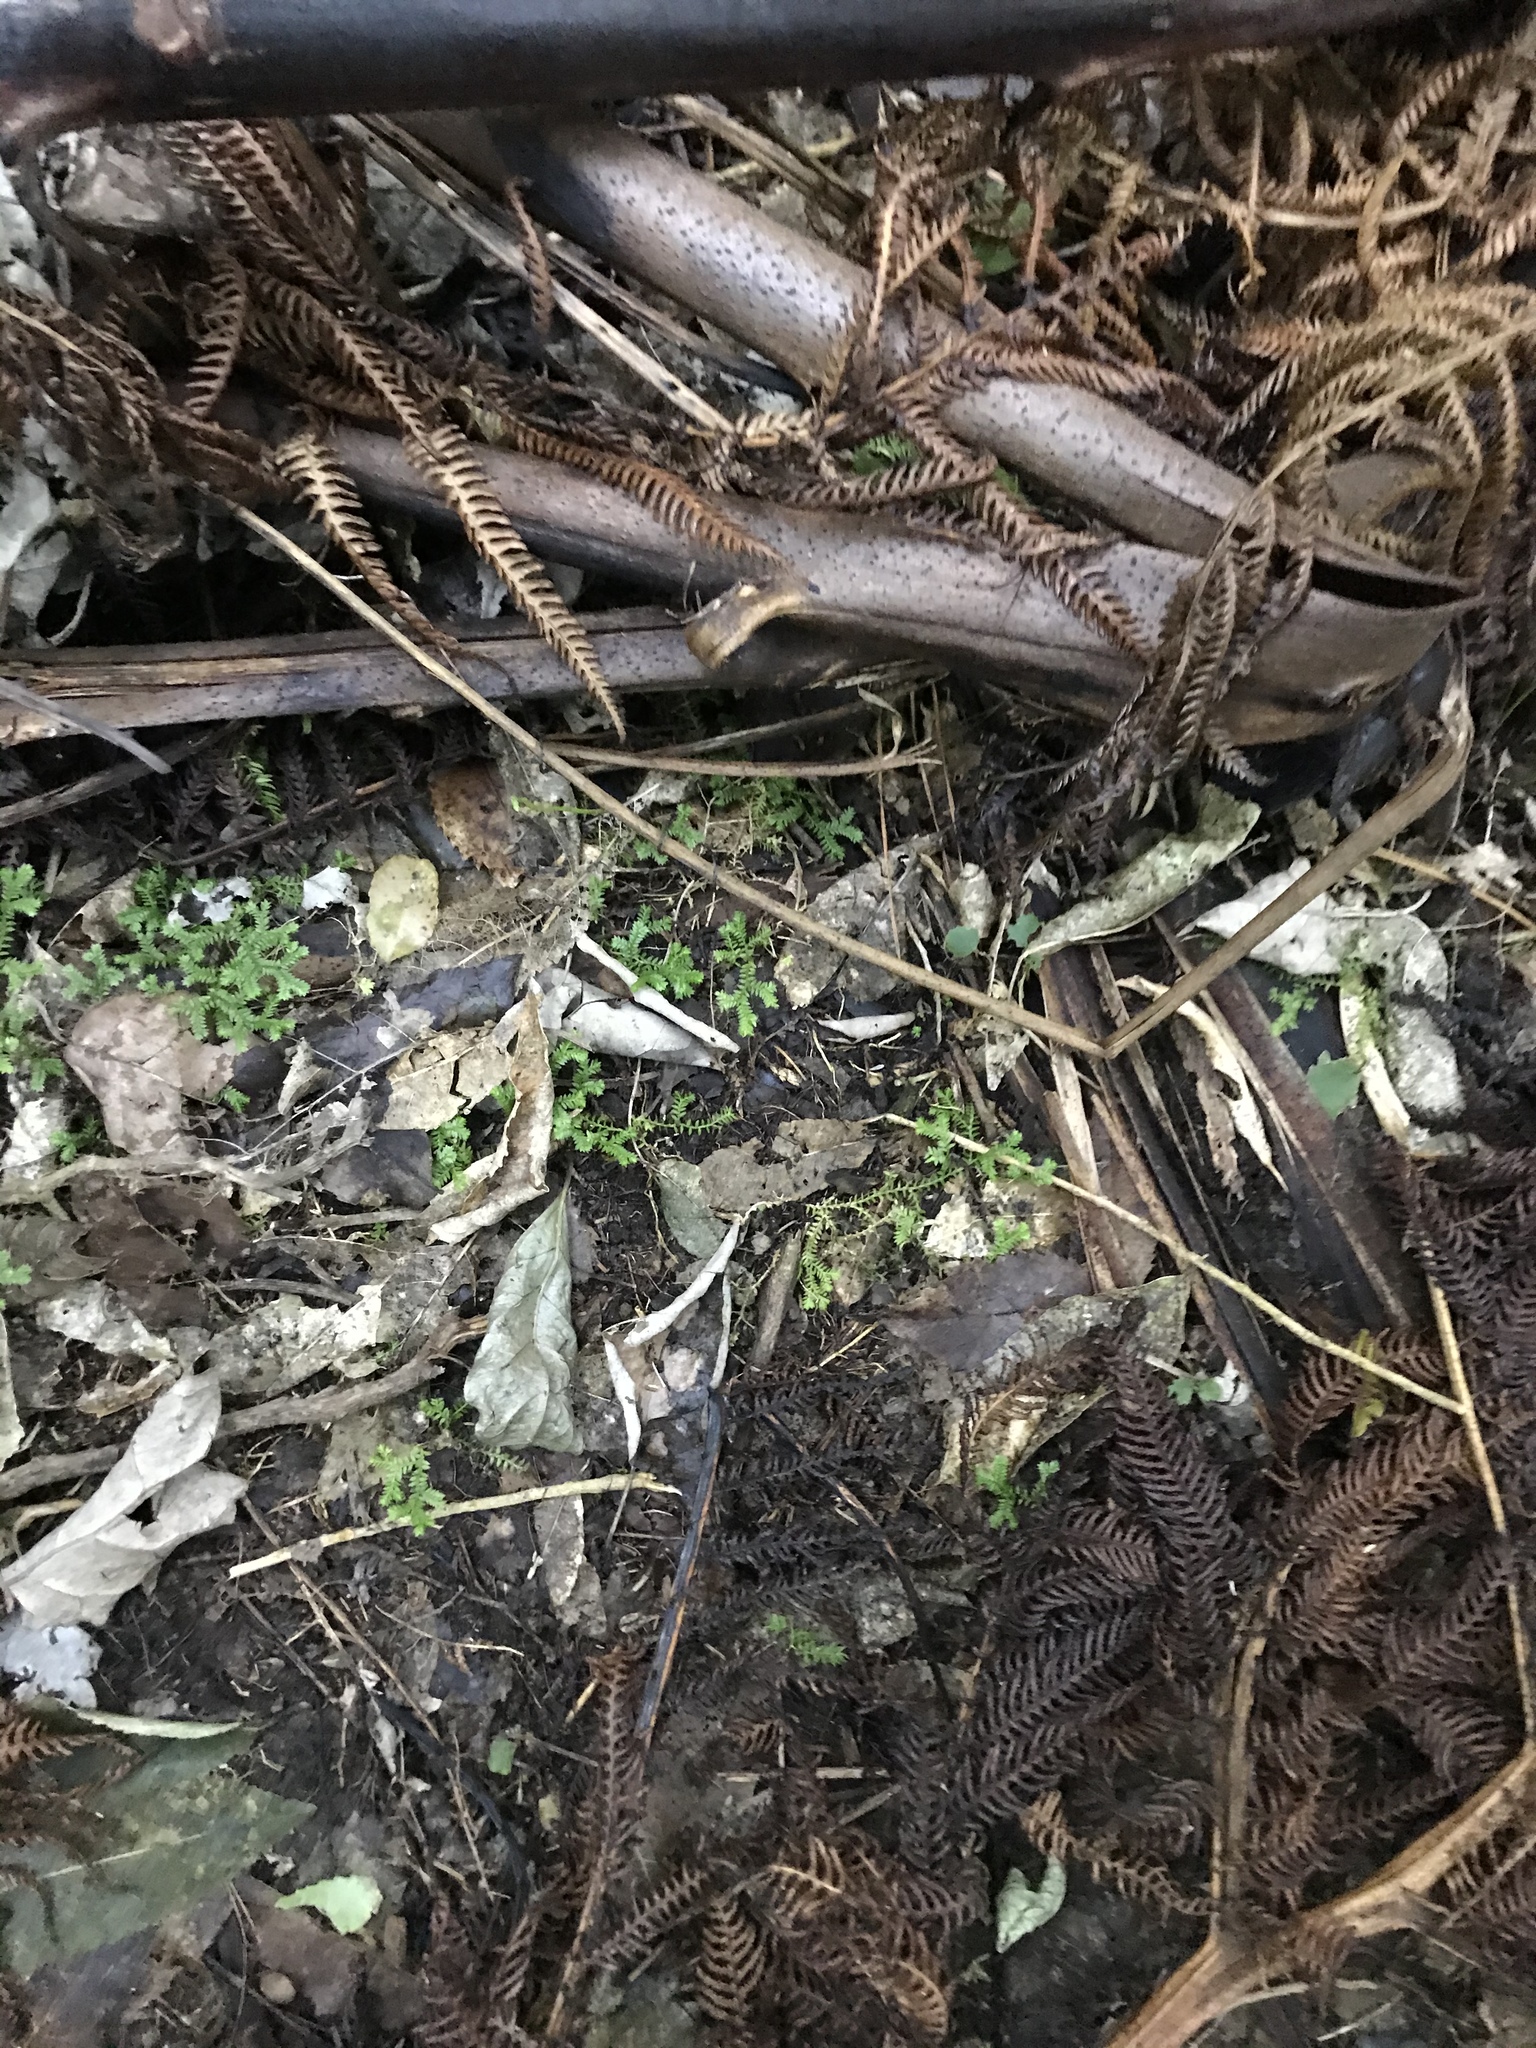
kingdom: Plantae
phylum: Tracheophyta
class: Lycopodiopsida
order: Selaginellales
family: Selaginellaceae
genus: Selaginella
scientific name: Selaginella kraussiana
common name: Krauss' spikemoss
